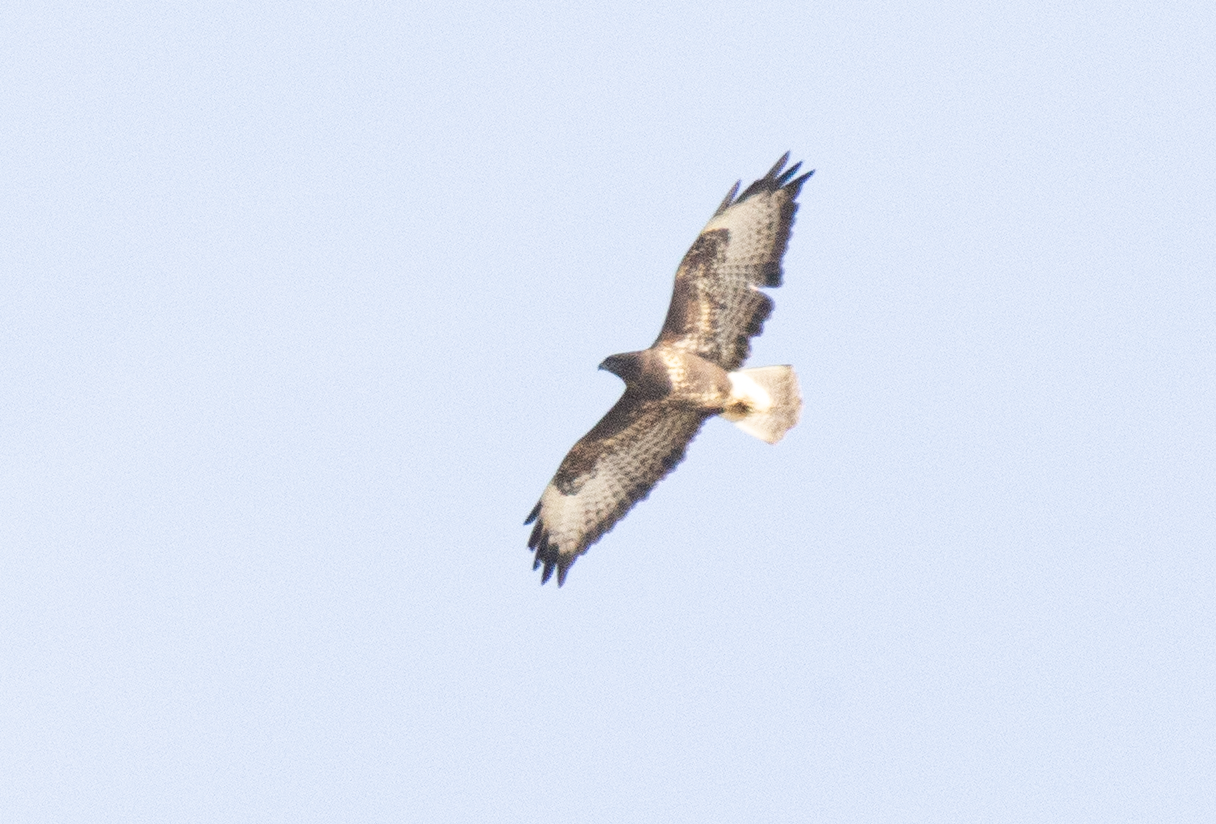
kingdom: Animalia
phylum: Chordata
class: Aves
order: Accipitriformes
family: Accipitridae
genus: Buteo
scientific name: Buteo buteo
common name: Common buzzard
